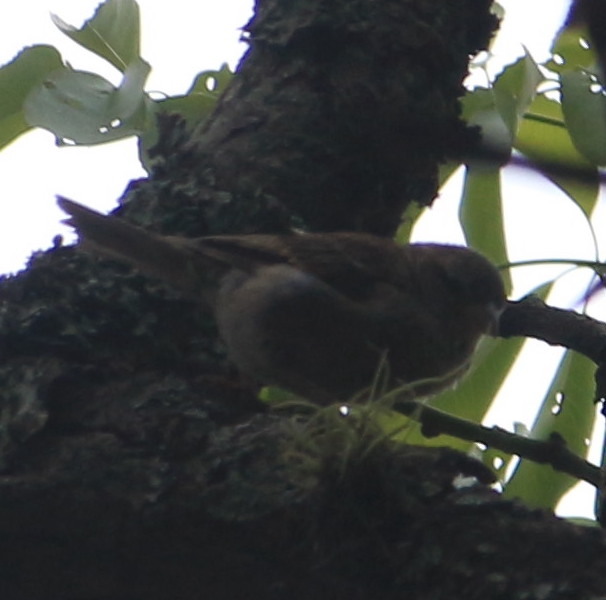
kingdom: Animalia
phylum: Chordata
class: Aves
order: Passeriformes
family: Passeridae
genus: Passer
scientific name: Passer domesticus
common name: House sparrow
